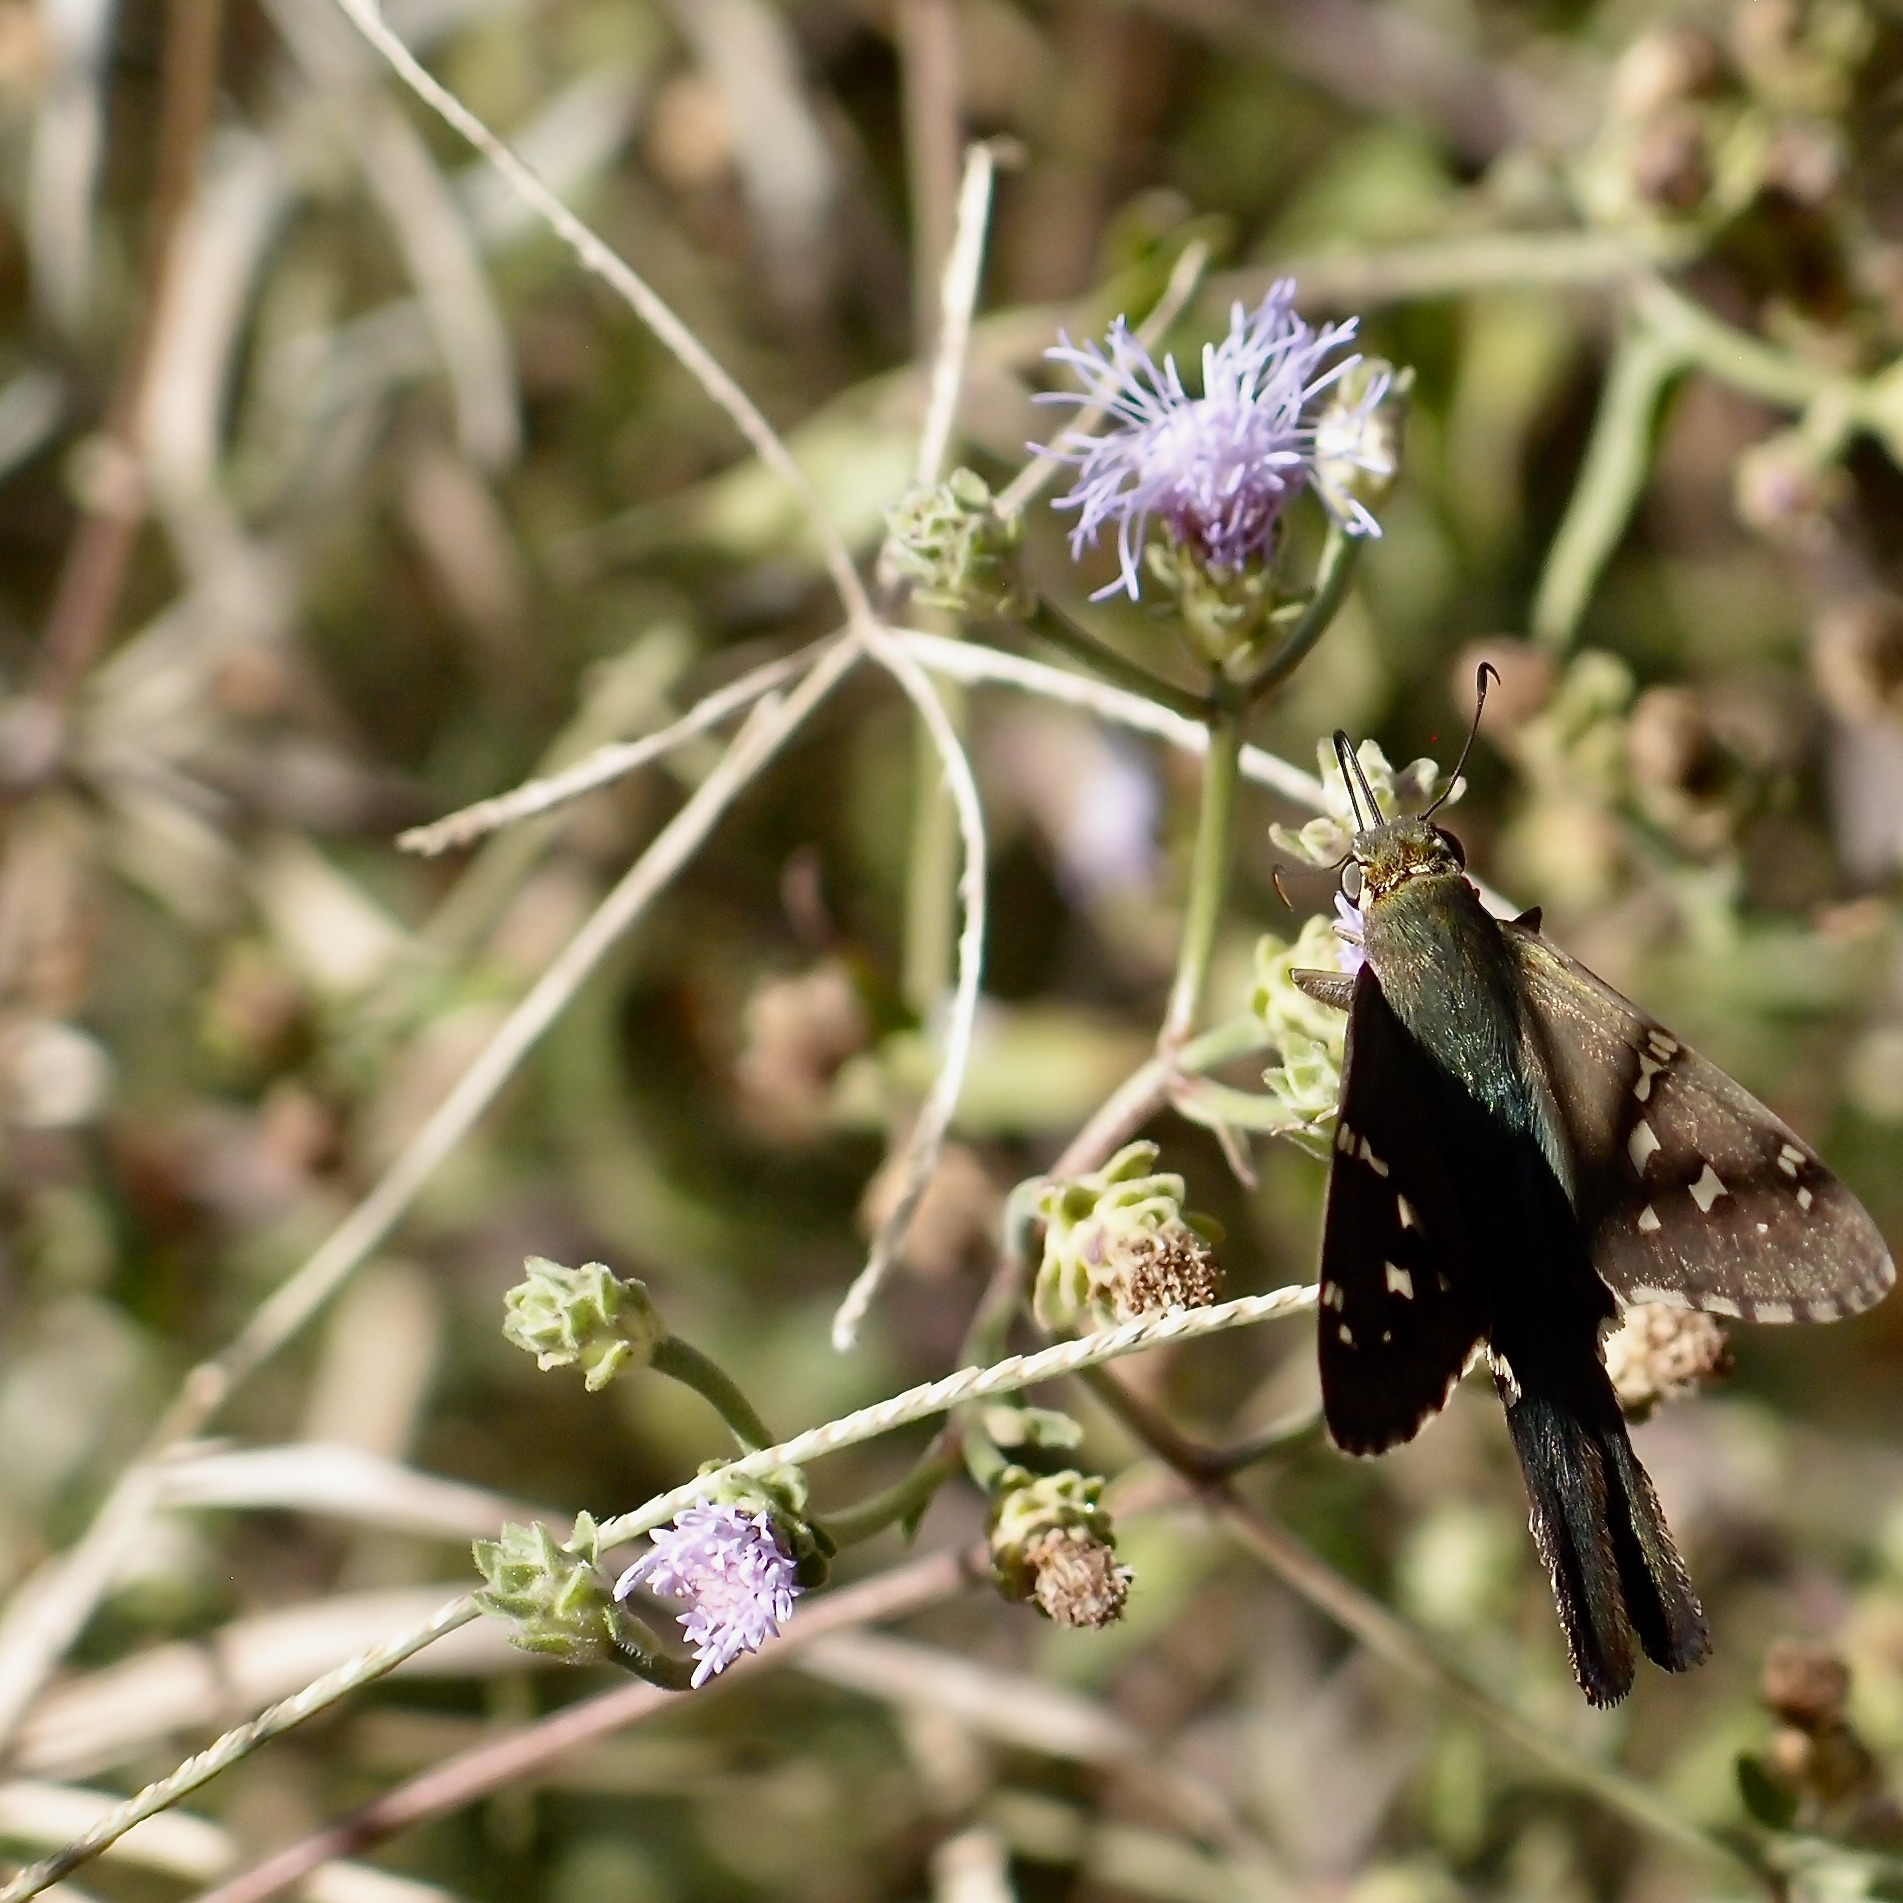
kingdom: Plantae
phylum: Tracheophyta
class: Magnoliopsida
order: Asterales
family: Asteraceae
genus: Chromolaena
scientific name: Chromolaena sagittata
